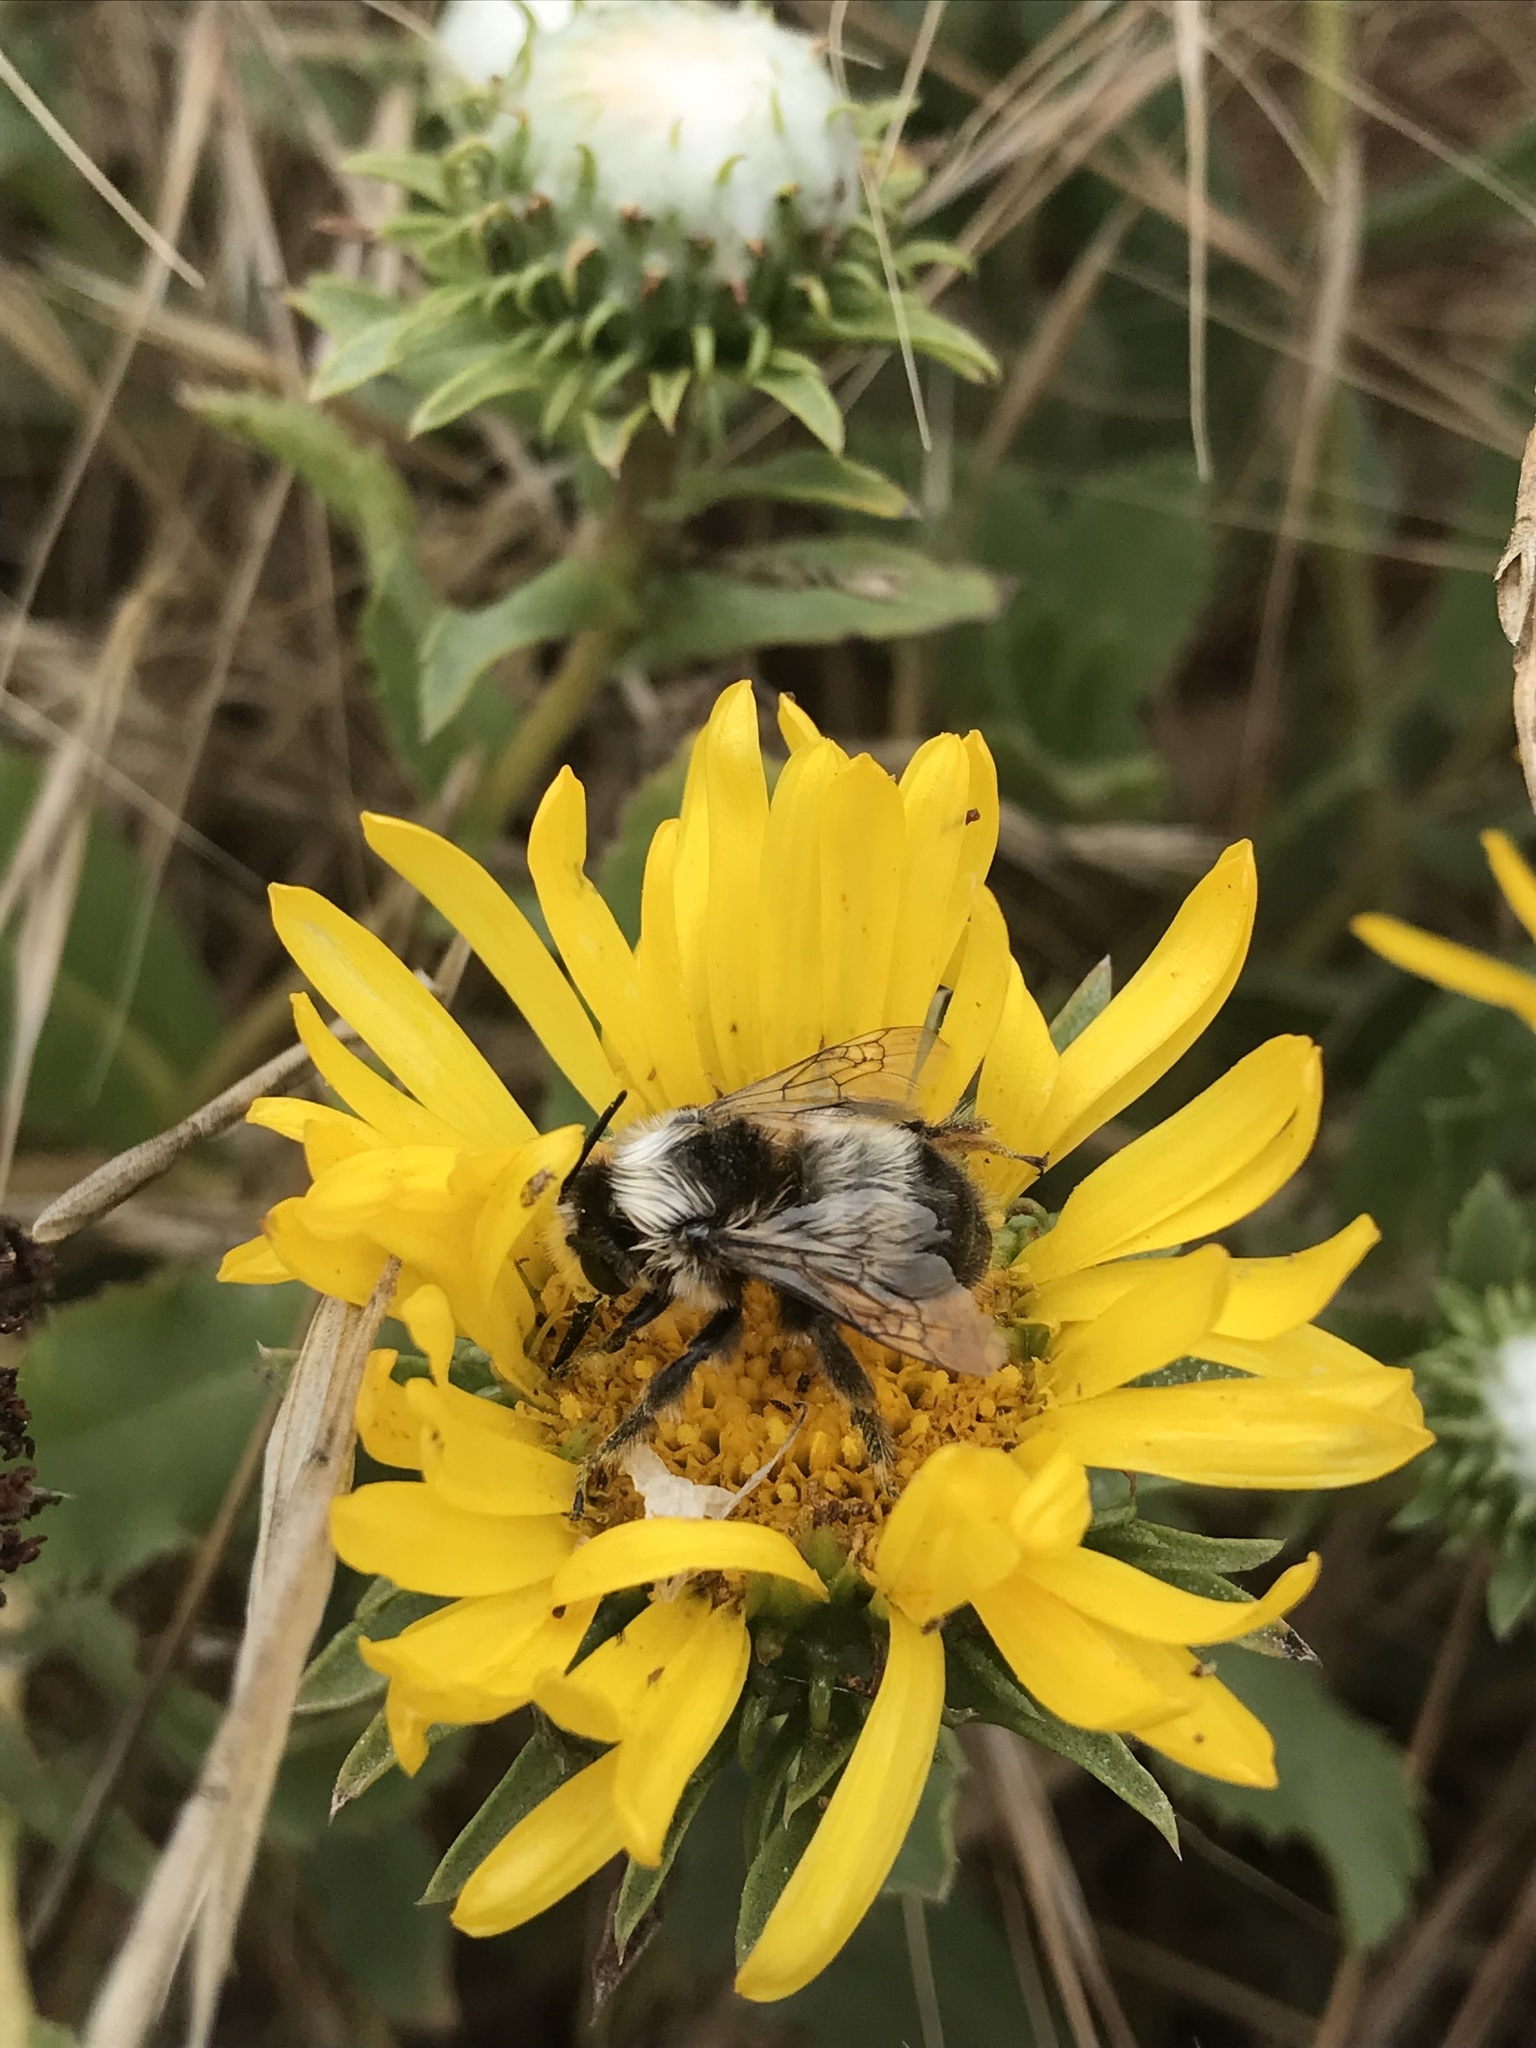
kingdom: Animalia
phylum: Arthropoda
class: Insecta
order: Hymenoptera
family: Apidae
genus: Anthophora
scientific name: Anthophora bomboides
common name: Bumble-bee-mimic digger bee
